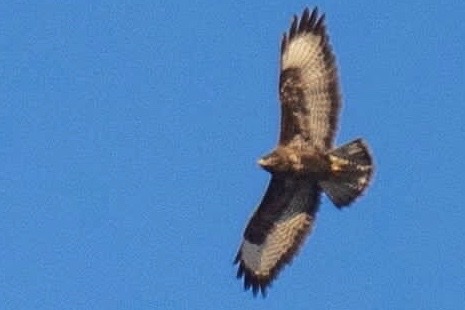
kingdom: Animalia
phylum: Chordata
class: Aves
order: Accipitriformes
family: Accipitridae
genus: Buteo
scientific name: Buteo buteo
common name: Common buzzard
